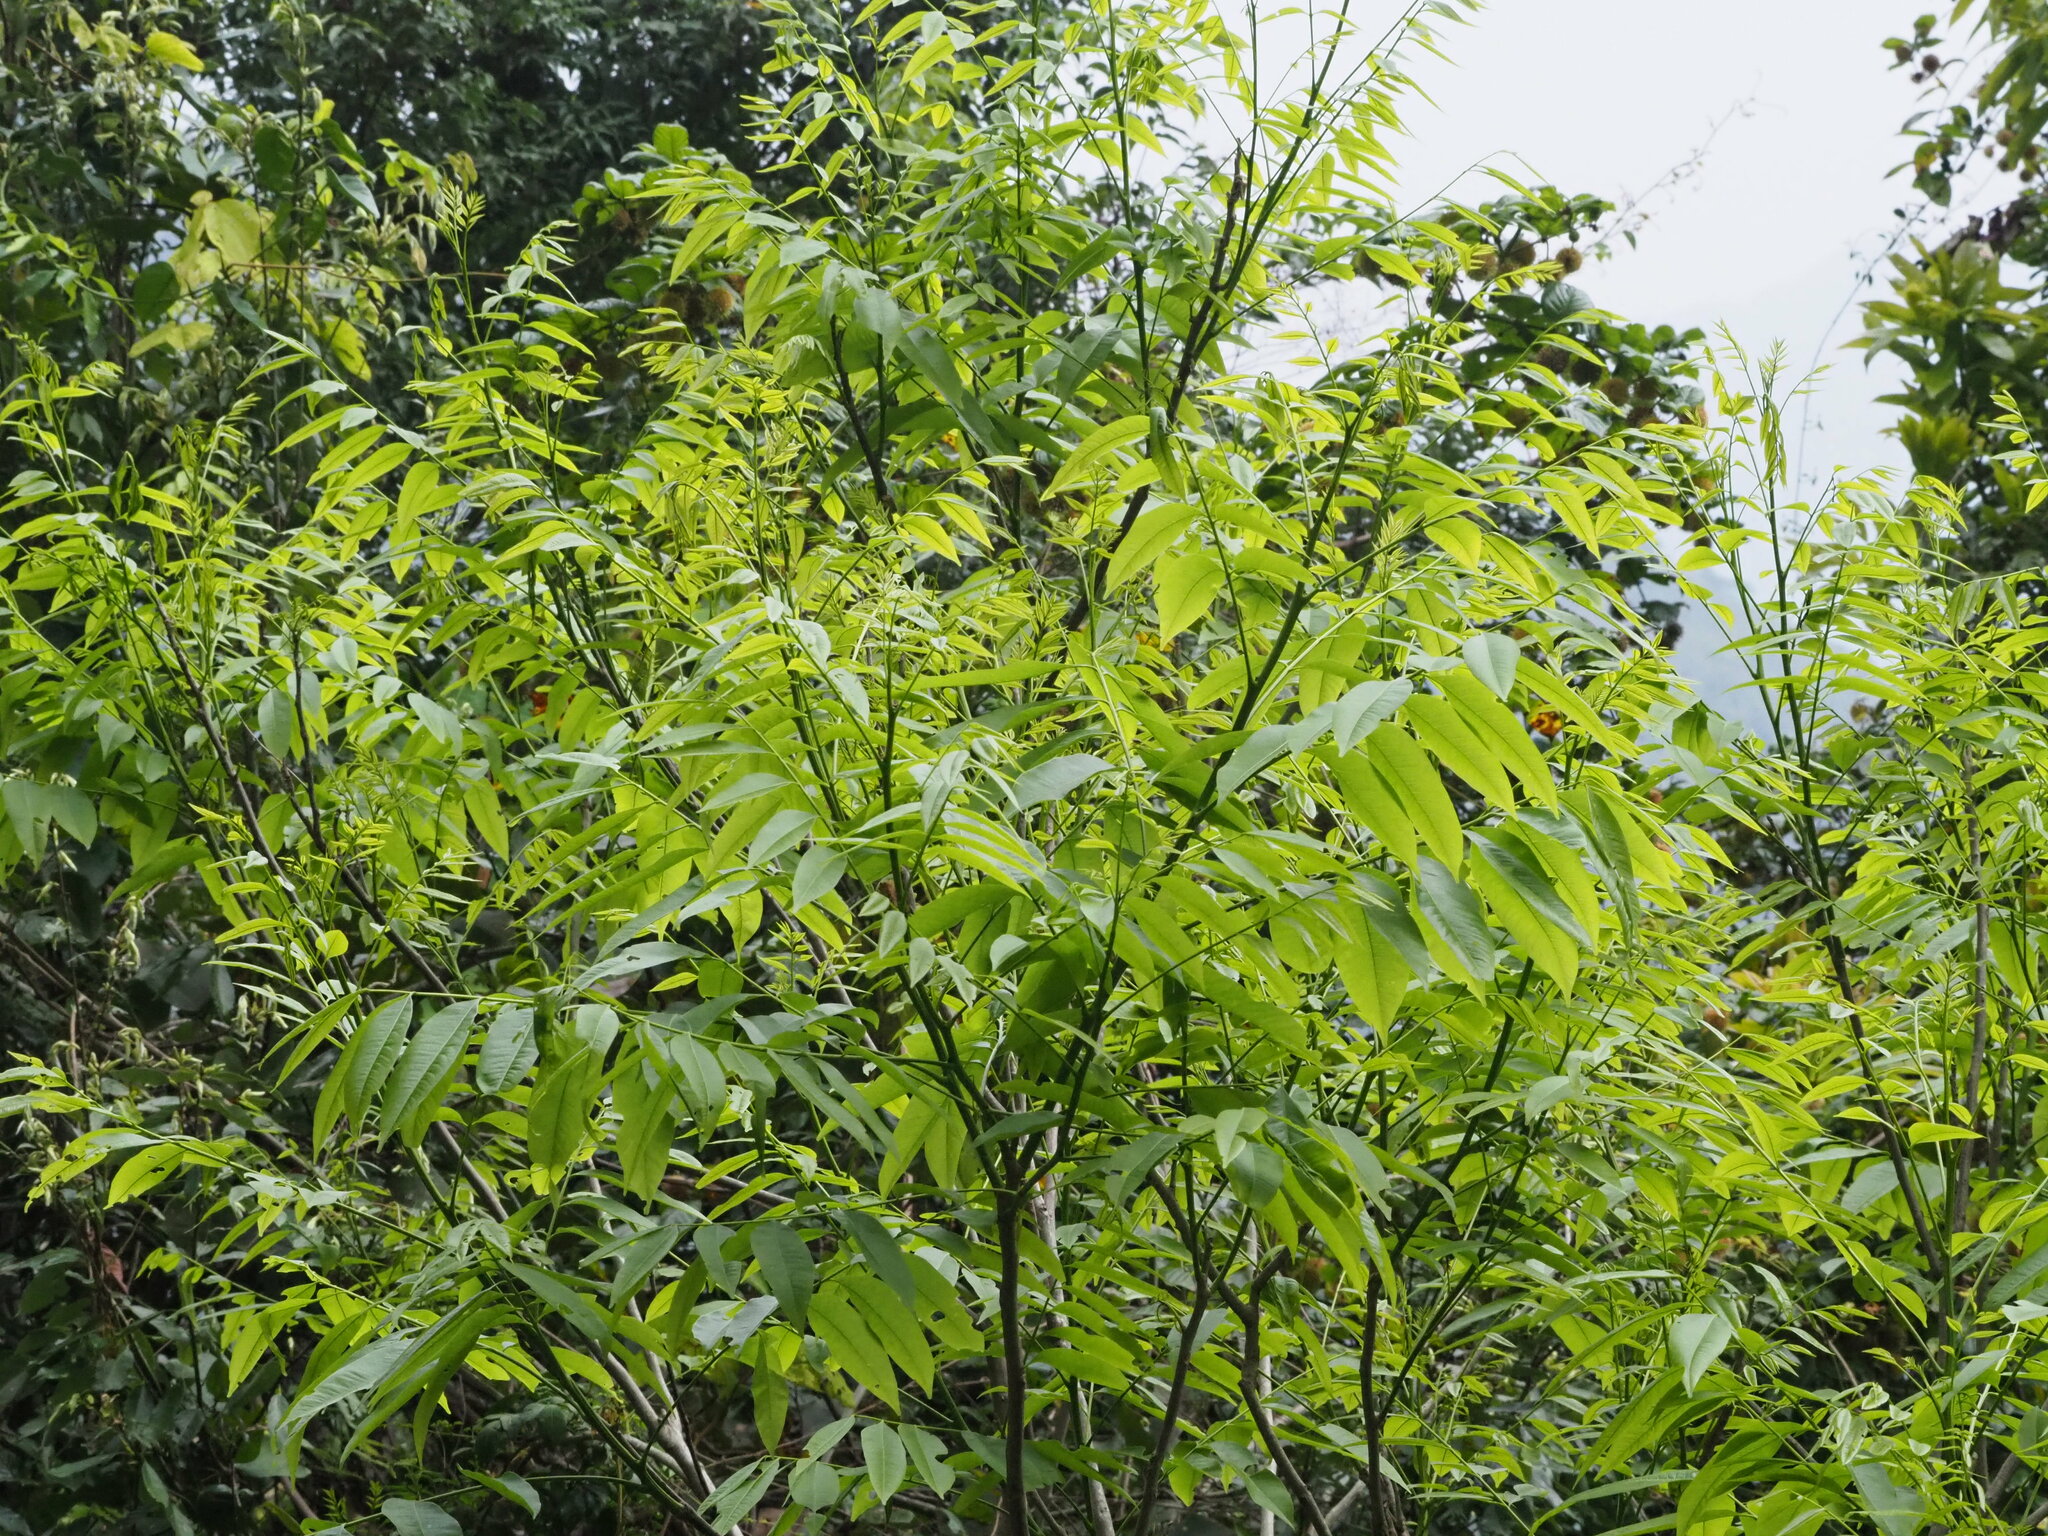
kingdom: Plantae
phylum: Tracheophyta
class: Magnoliopsida
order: Sapindales
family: Sapindaceae
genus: Sapindus
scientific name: Sapindus mukorossi
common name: Chinese soapberry
